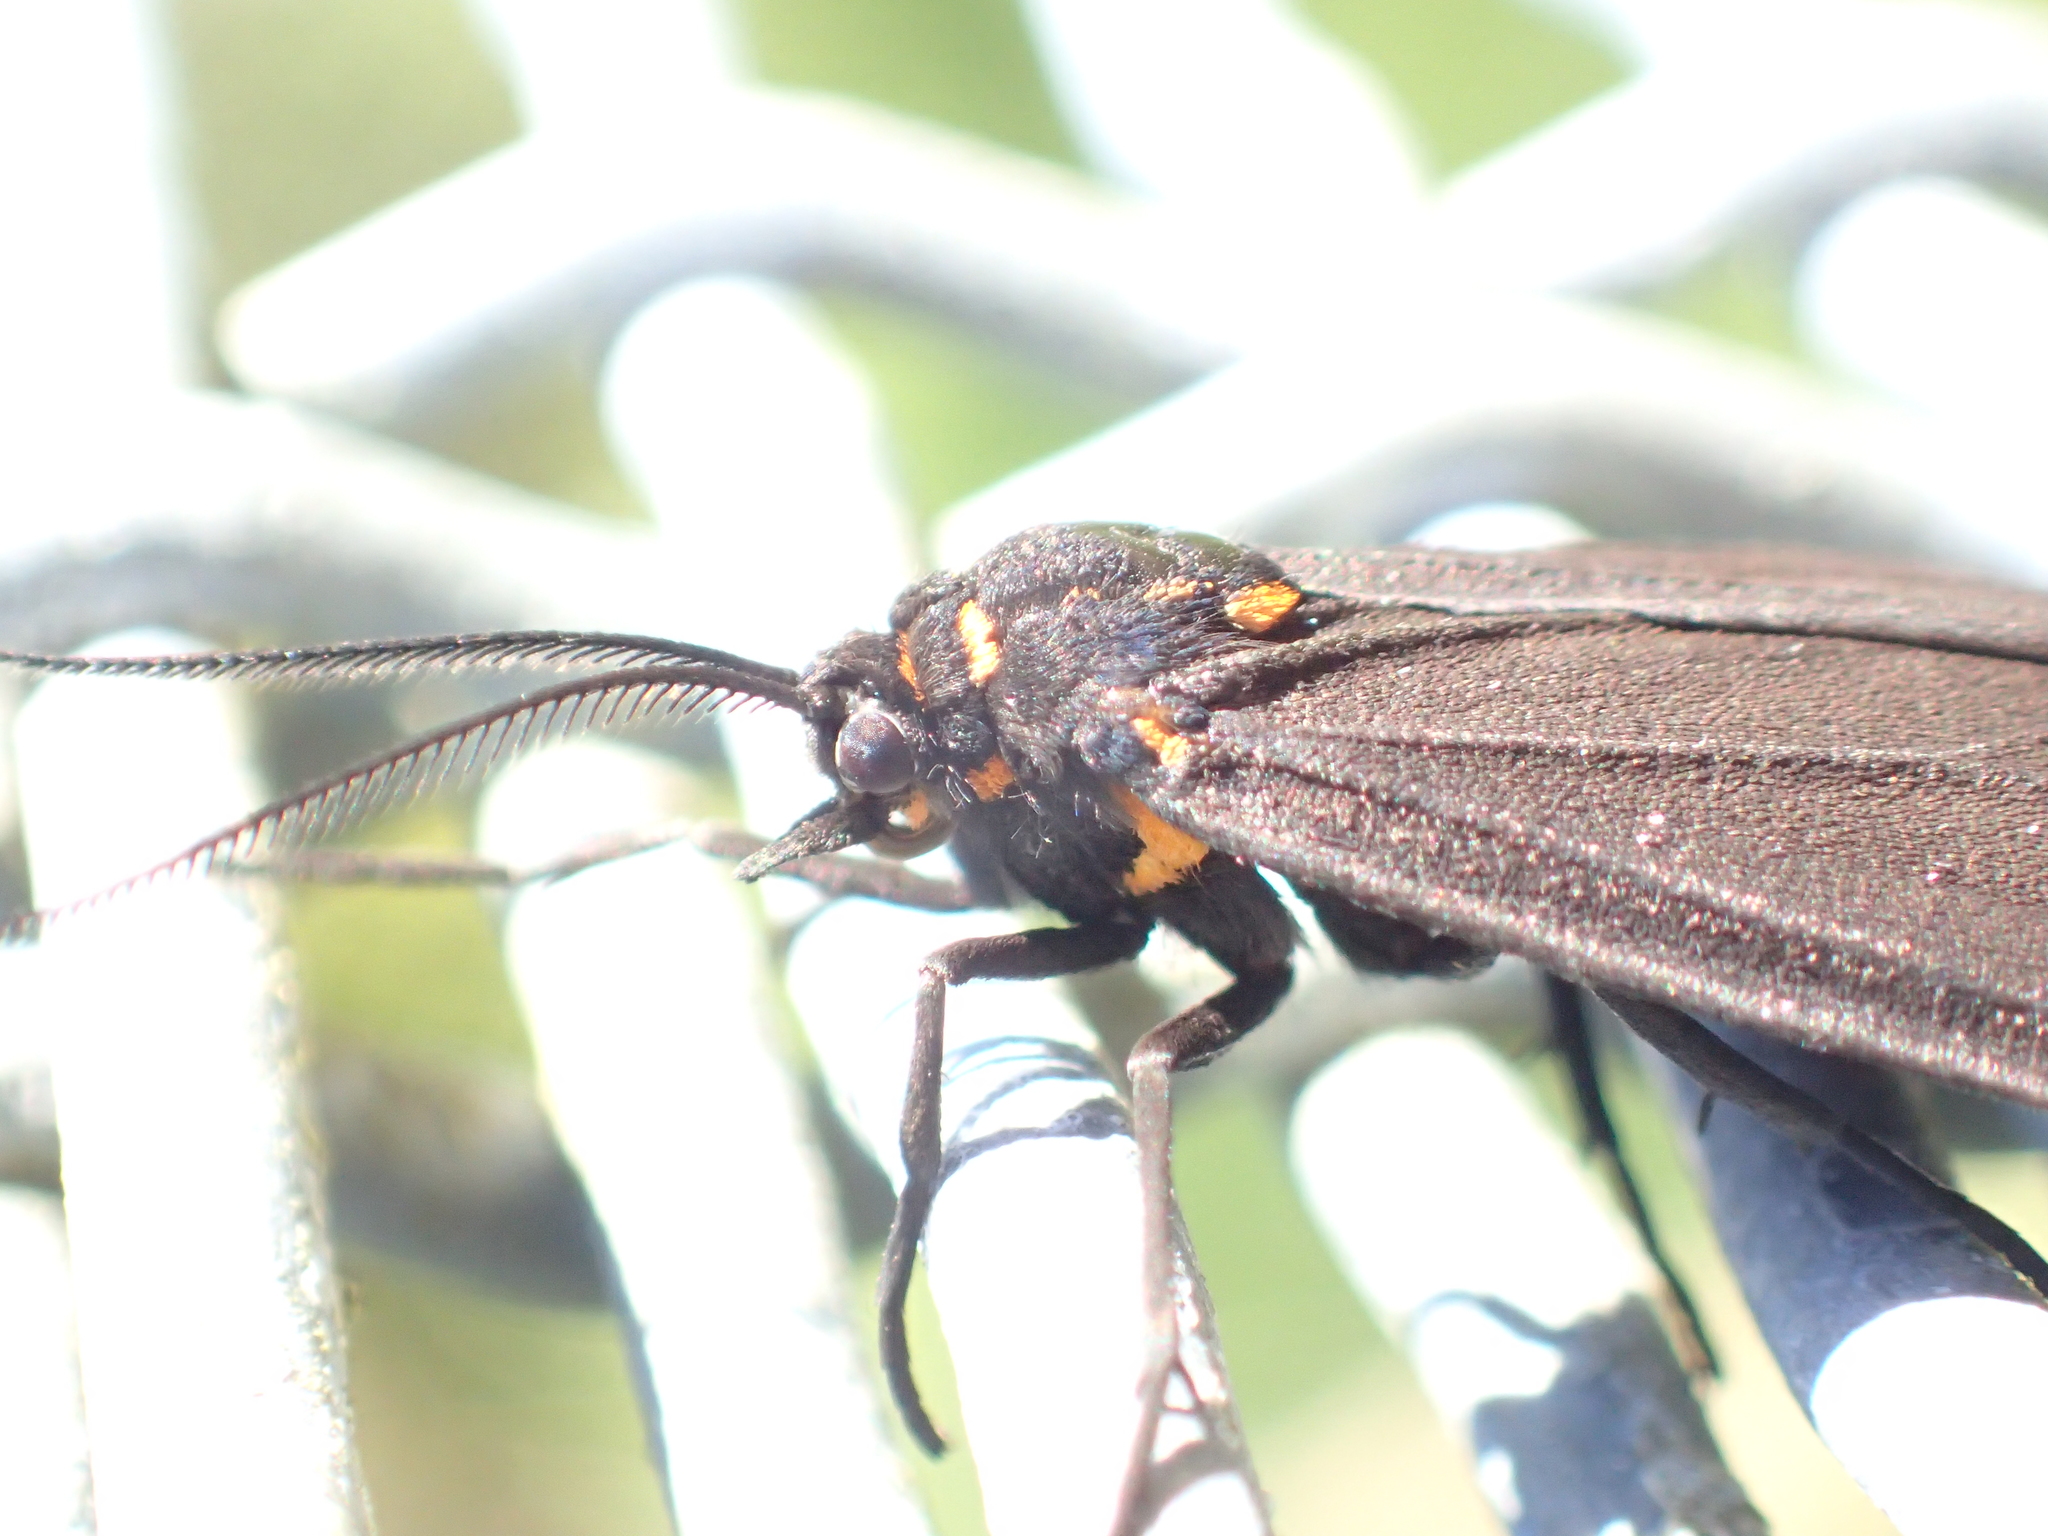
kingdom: Animalia
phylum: Arthropoda
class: Insecta
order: Lepidoptera
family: Erebidae
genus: Nyctemera
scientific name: Nyctemera annulatum
